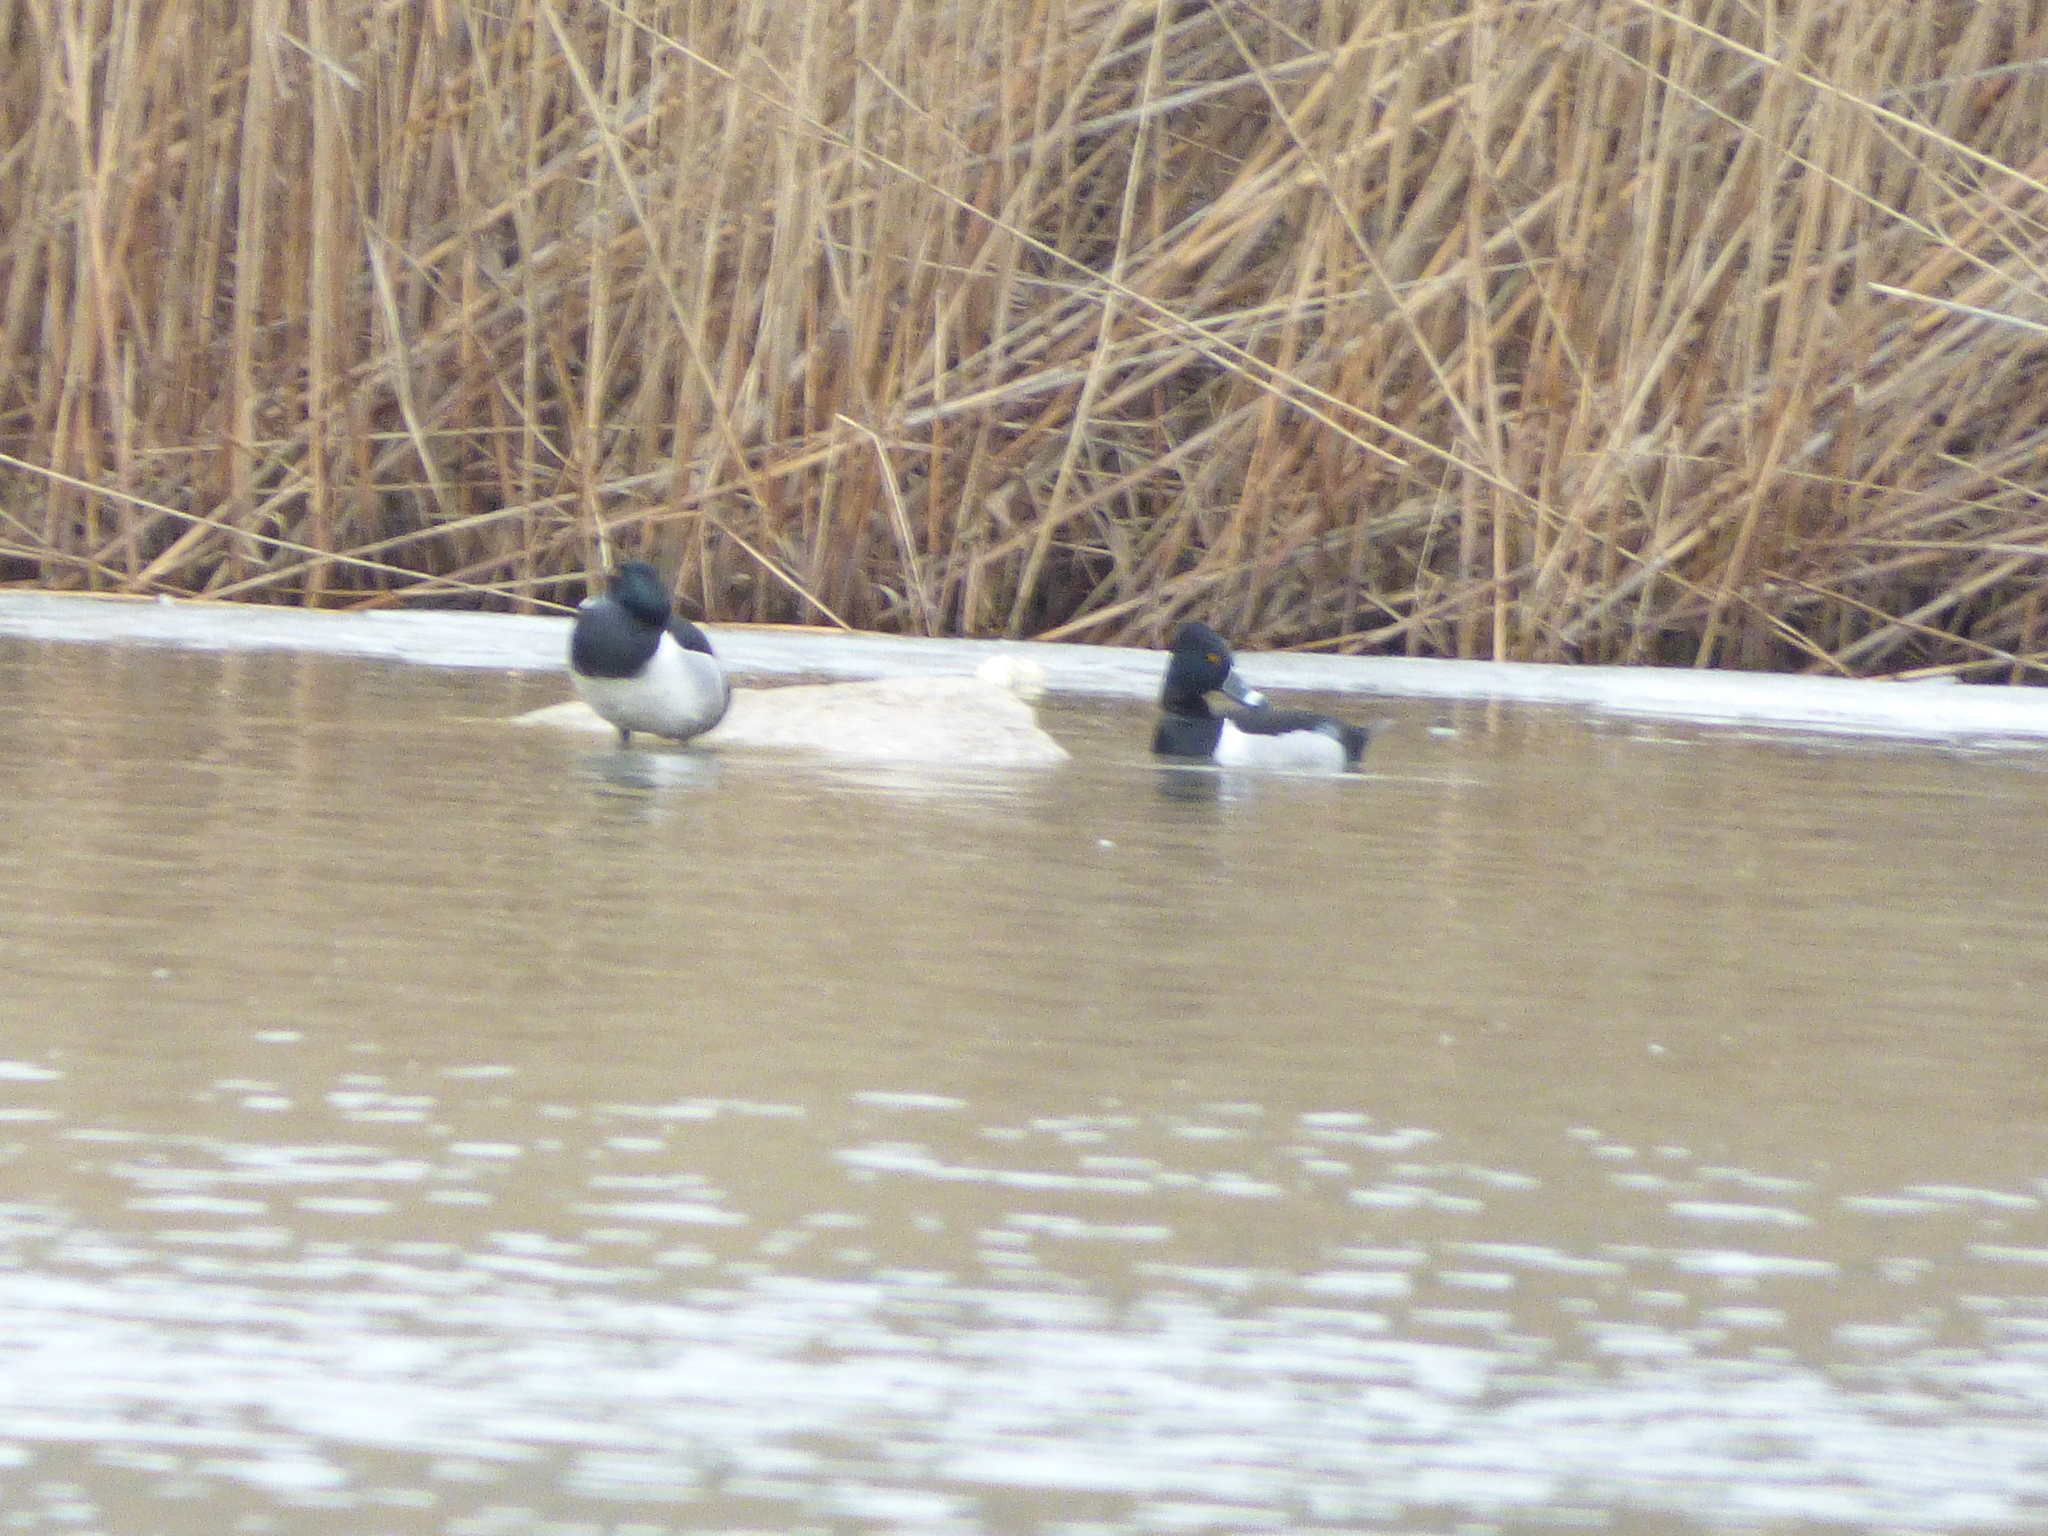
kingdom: Animalia
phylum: Chordata
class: Aves
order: Anseriformes
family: Anatidae
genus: Aythya
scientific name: Aythya collaris
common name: Ring-necked duck
